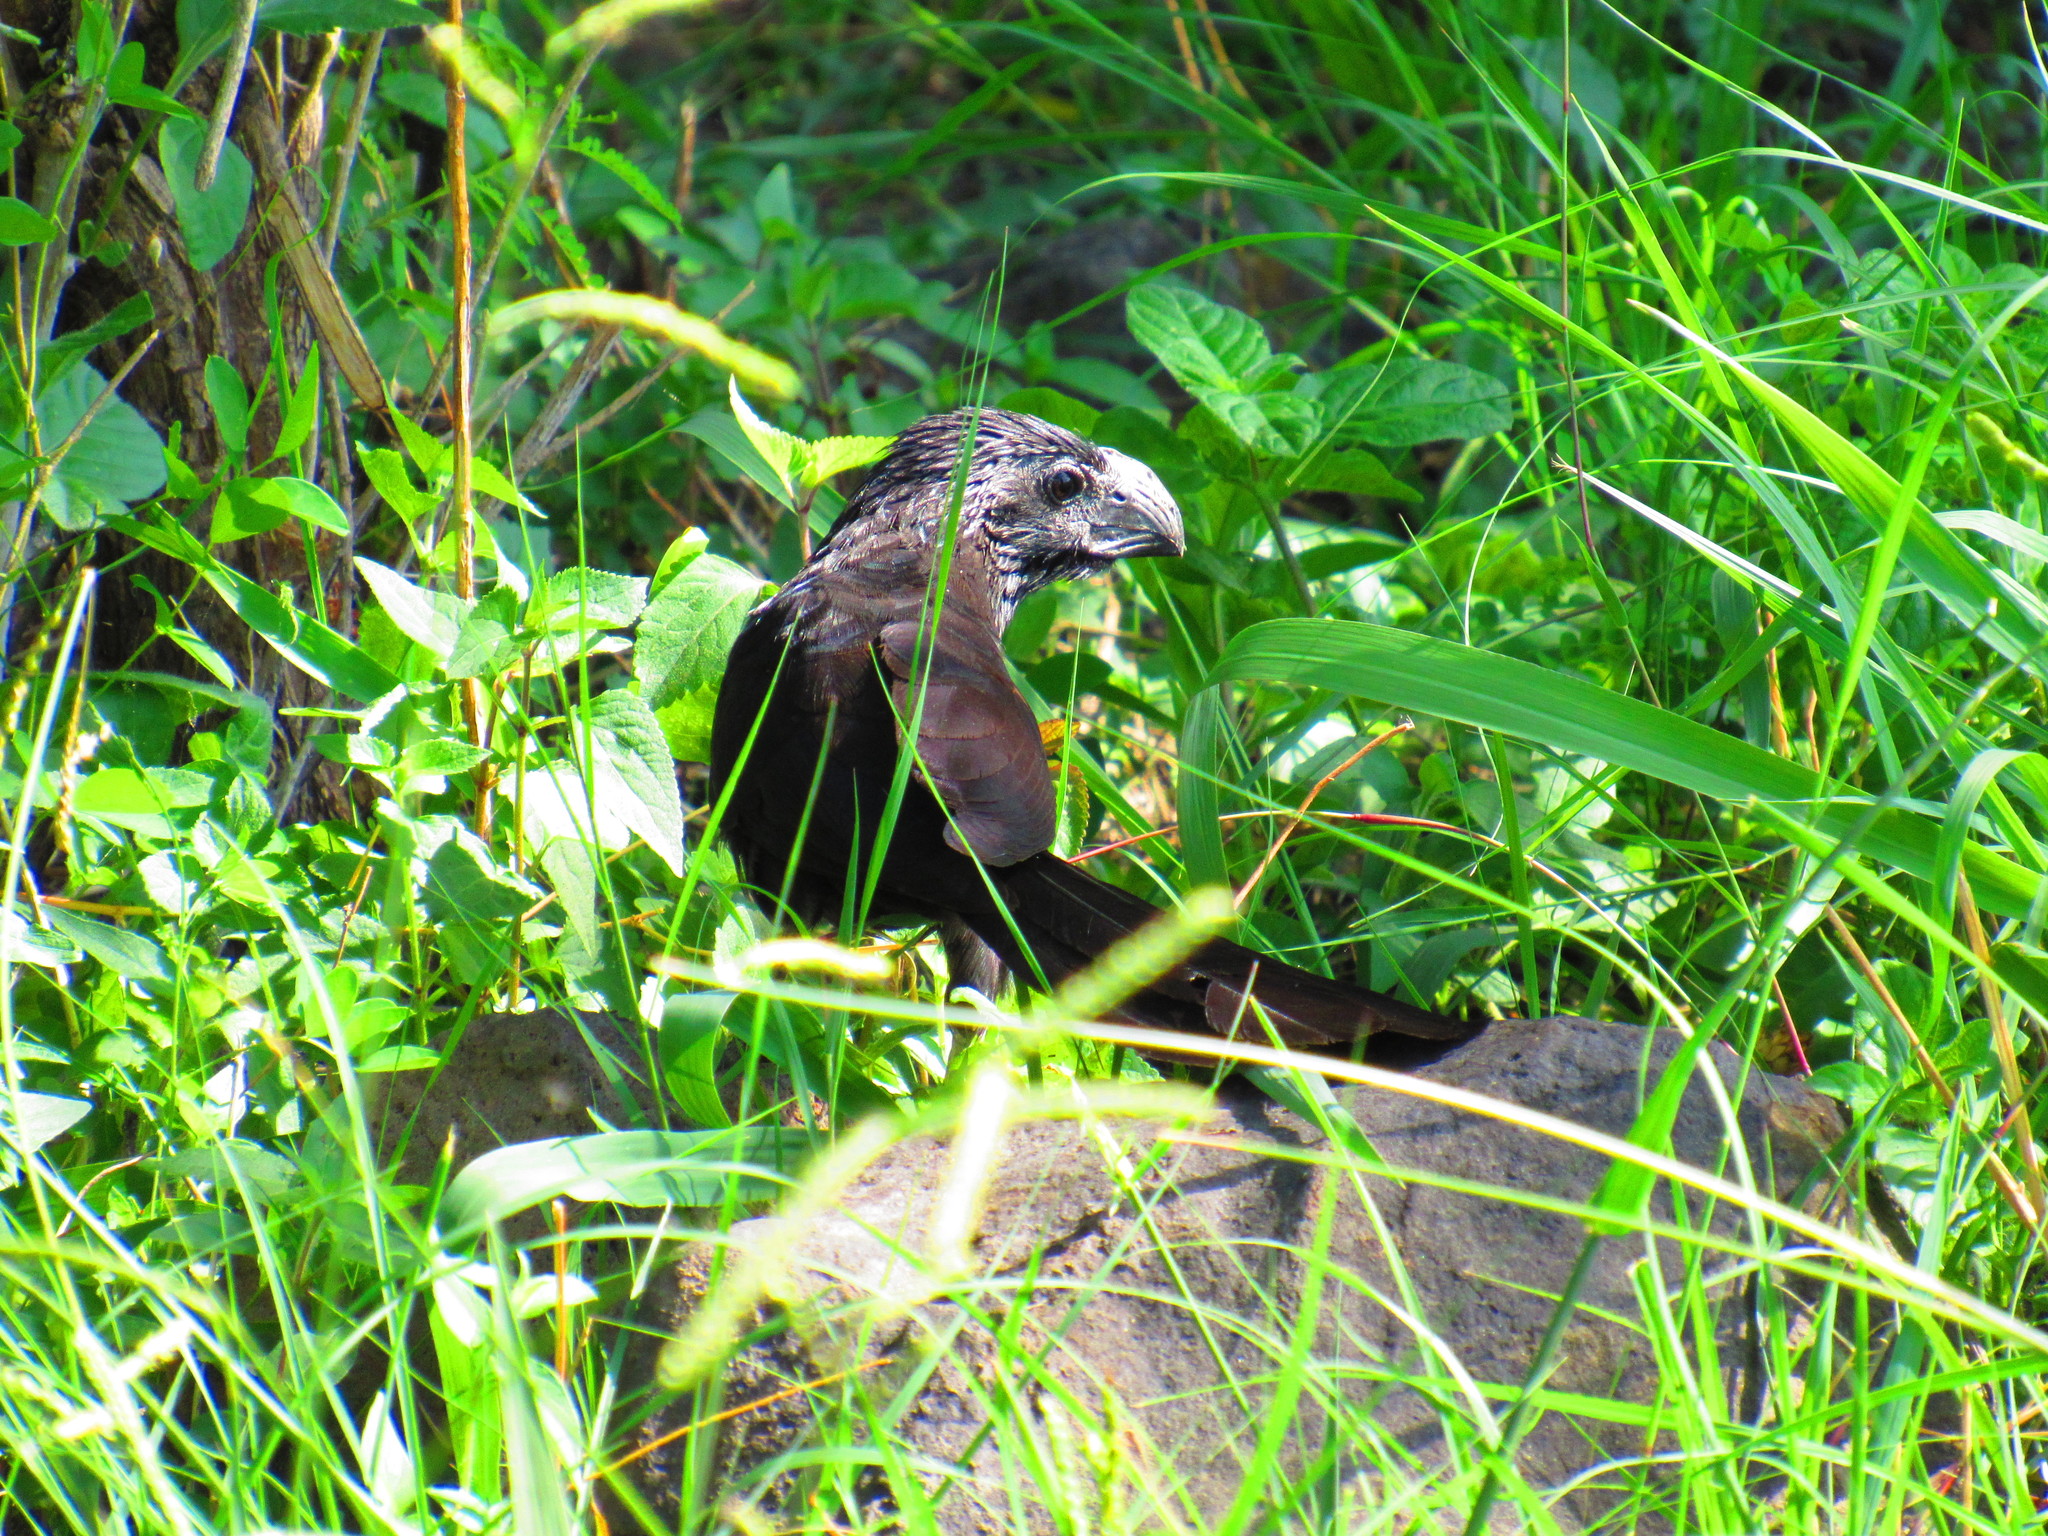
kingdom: Animalia
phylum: Chordata
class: Aves
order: Cuculiformes
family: Cuculidae
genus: Crotophaga
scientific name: Crotophaga sulcirostris
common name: Groove-billed ani
